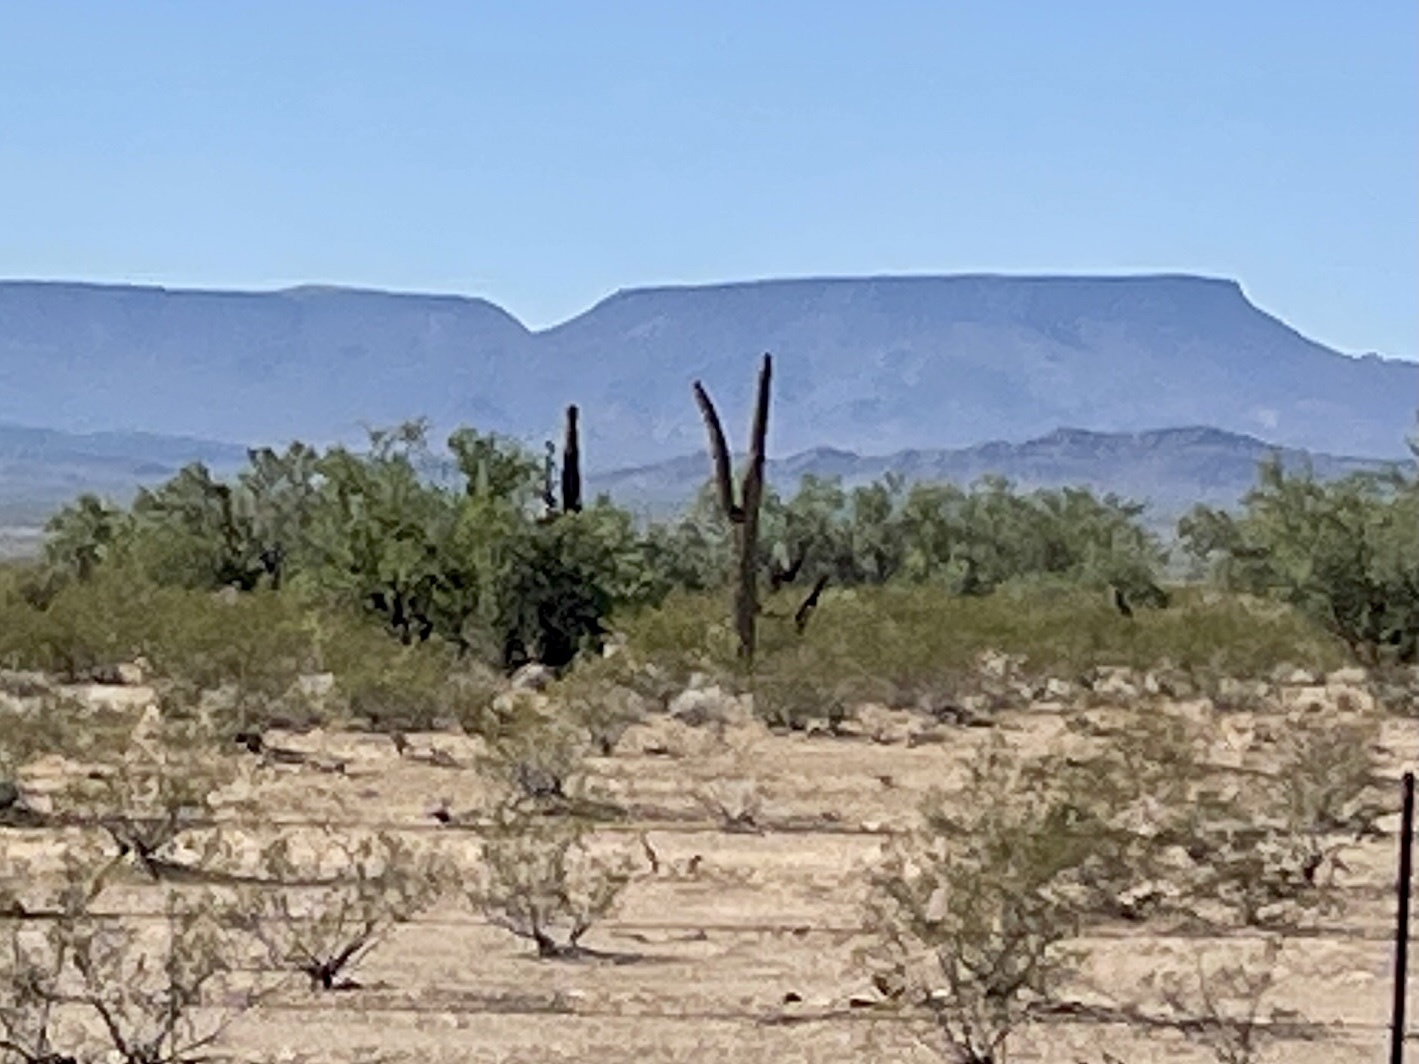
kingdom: Plantae
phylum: Tracheophyta
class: Magnoliopsida
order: Caryophyllales
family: Cactaceae
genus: Carnegiea
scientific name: Carnegiea gigantea
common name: Saguaro
